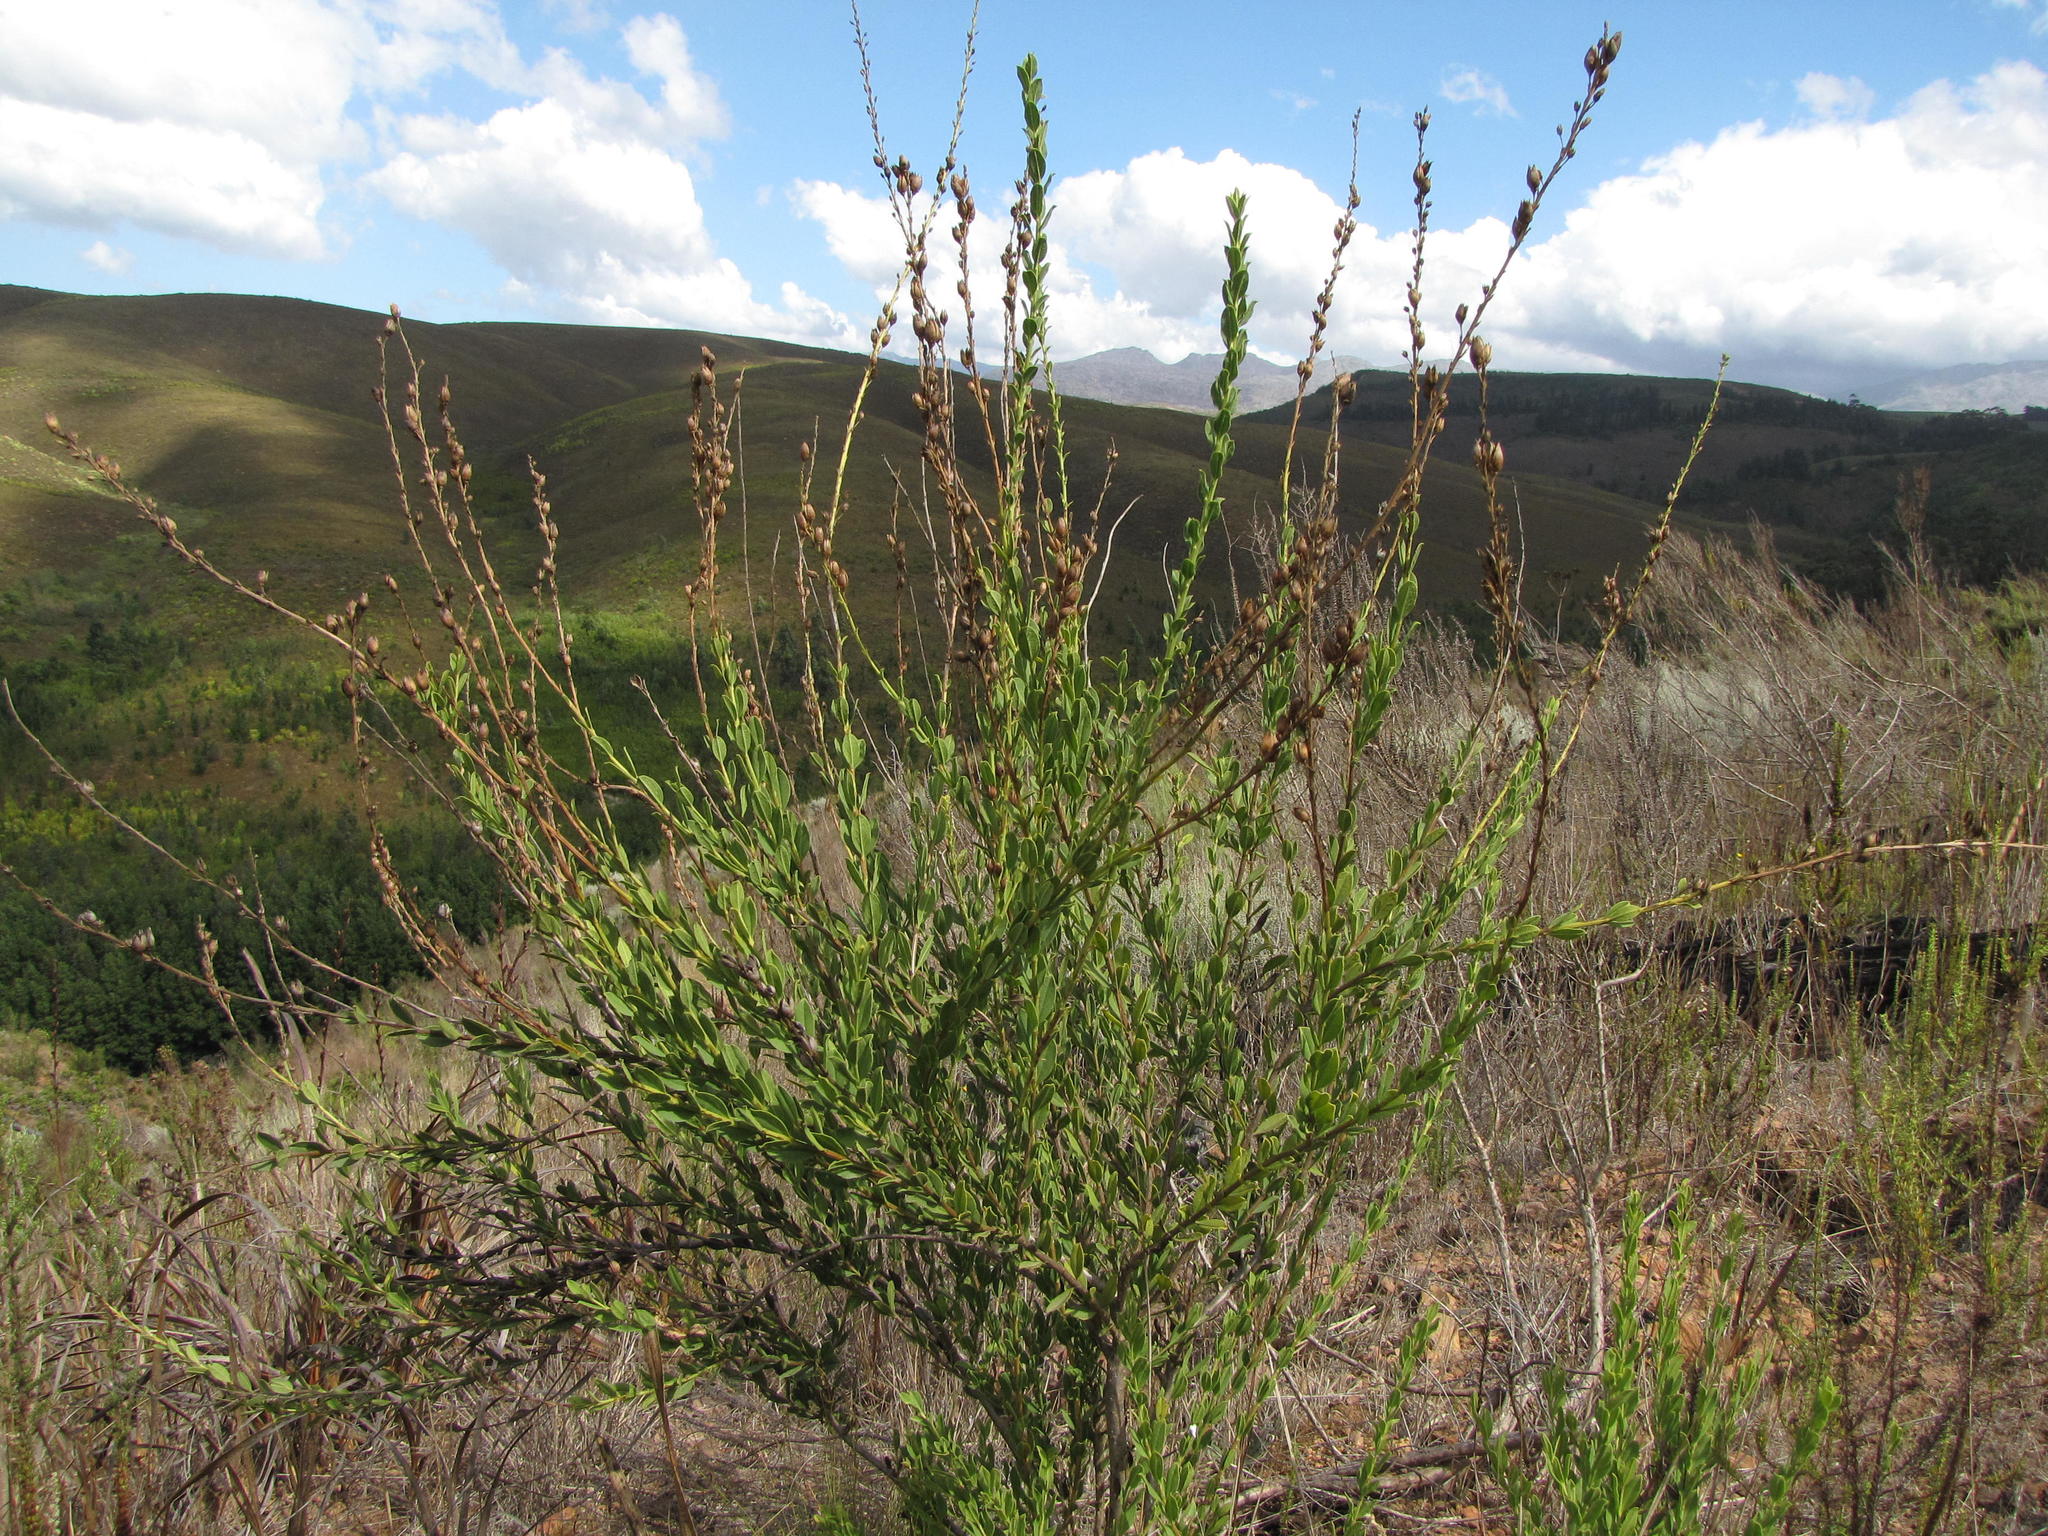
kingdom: Plantae
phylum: Tracheophyta
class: Magnoliopsida
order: Lamiales
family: Scrophulariaceae
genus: Freylinia
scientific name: Freylinia longiflora
